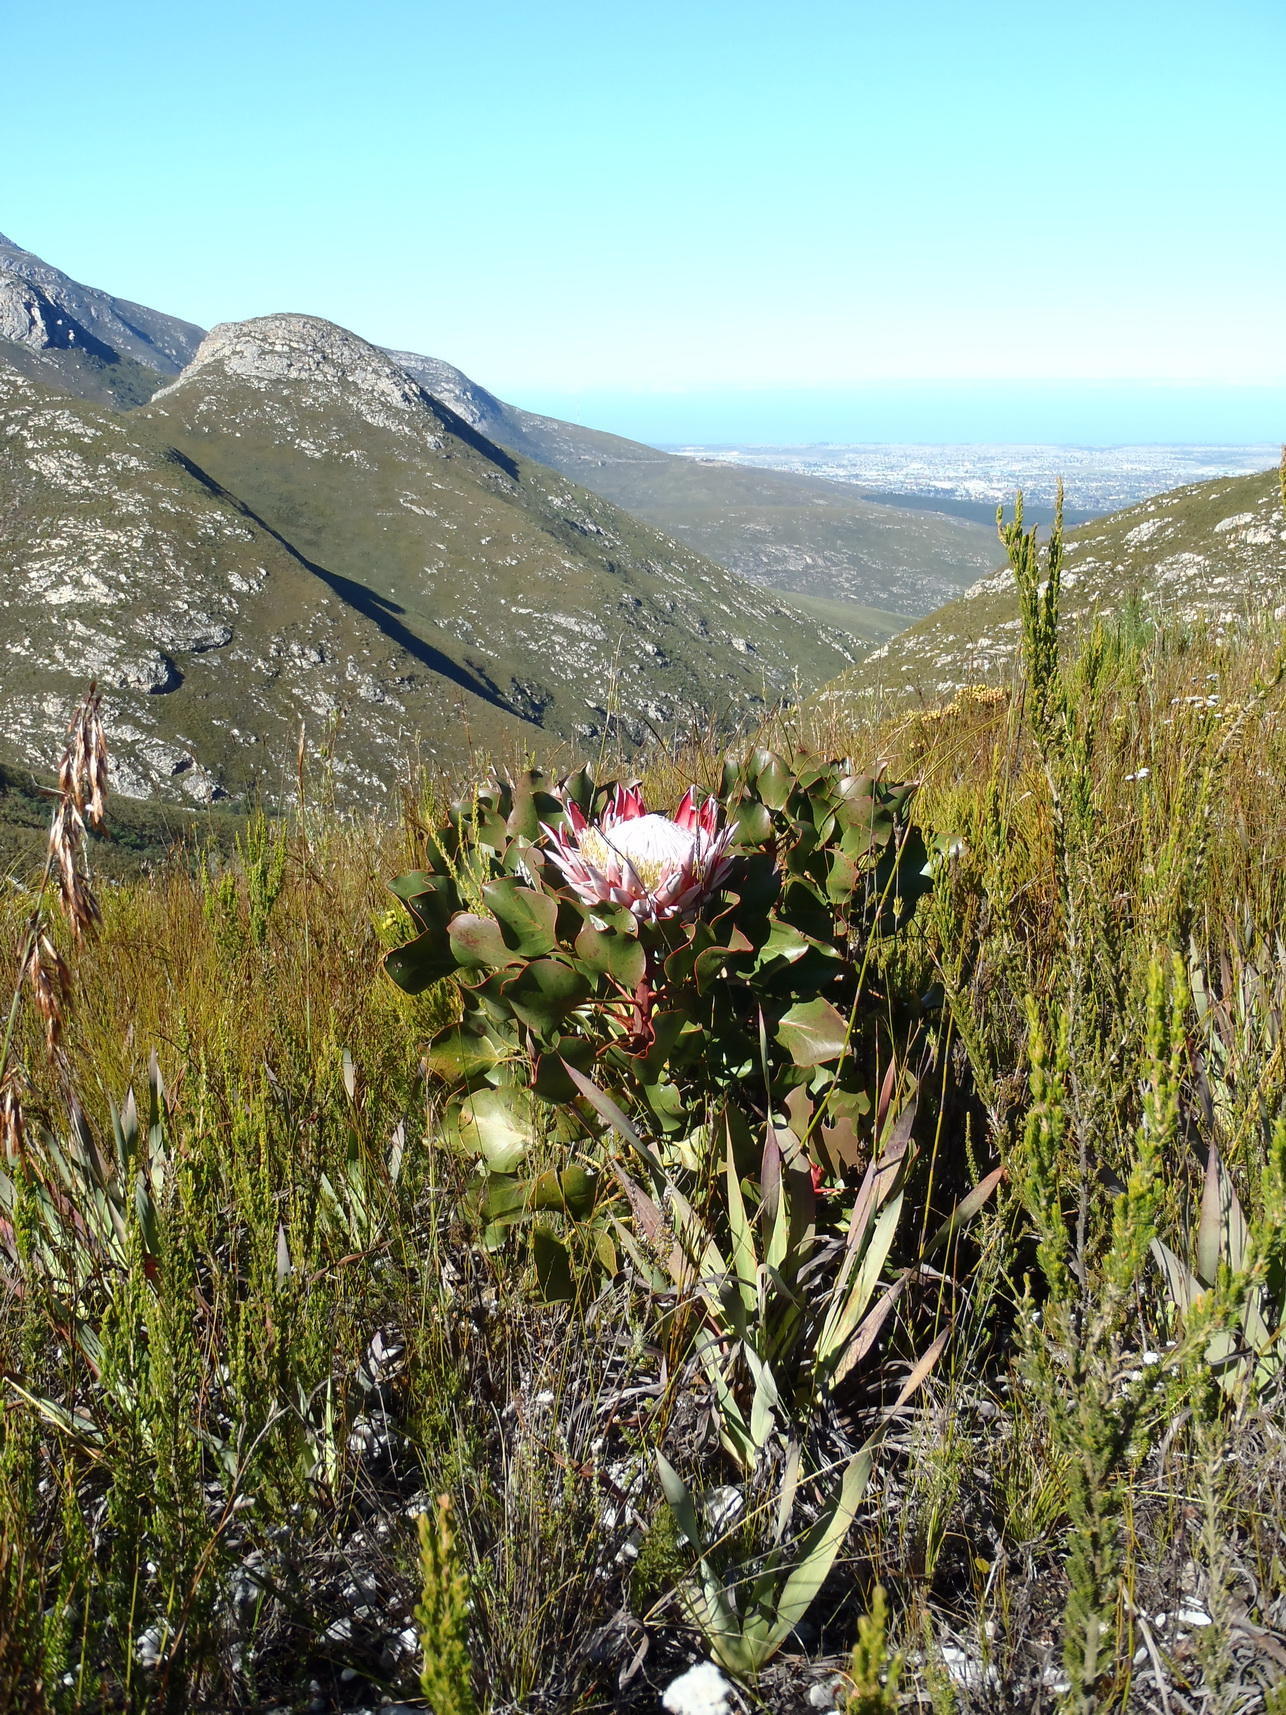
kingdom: Plantae
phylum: Tracheophyta
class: Magnoliopsida
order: Proteales
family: Proteaceae
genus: Protea
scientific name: Protea cynaroides
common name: King protea
